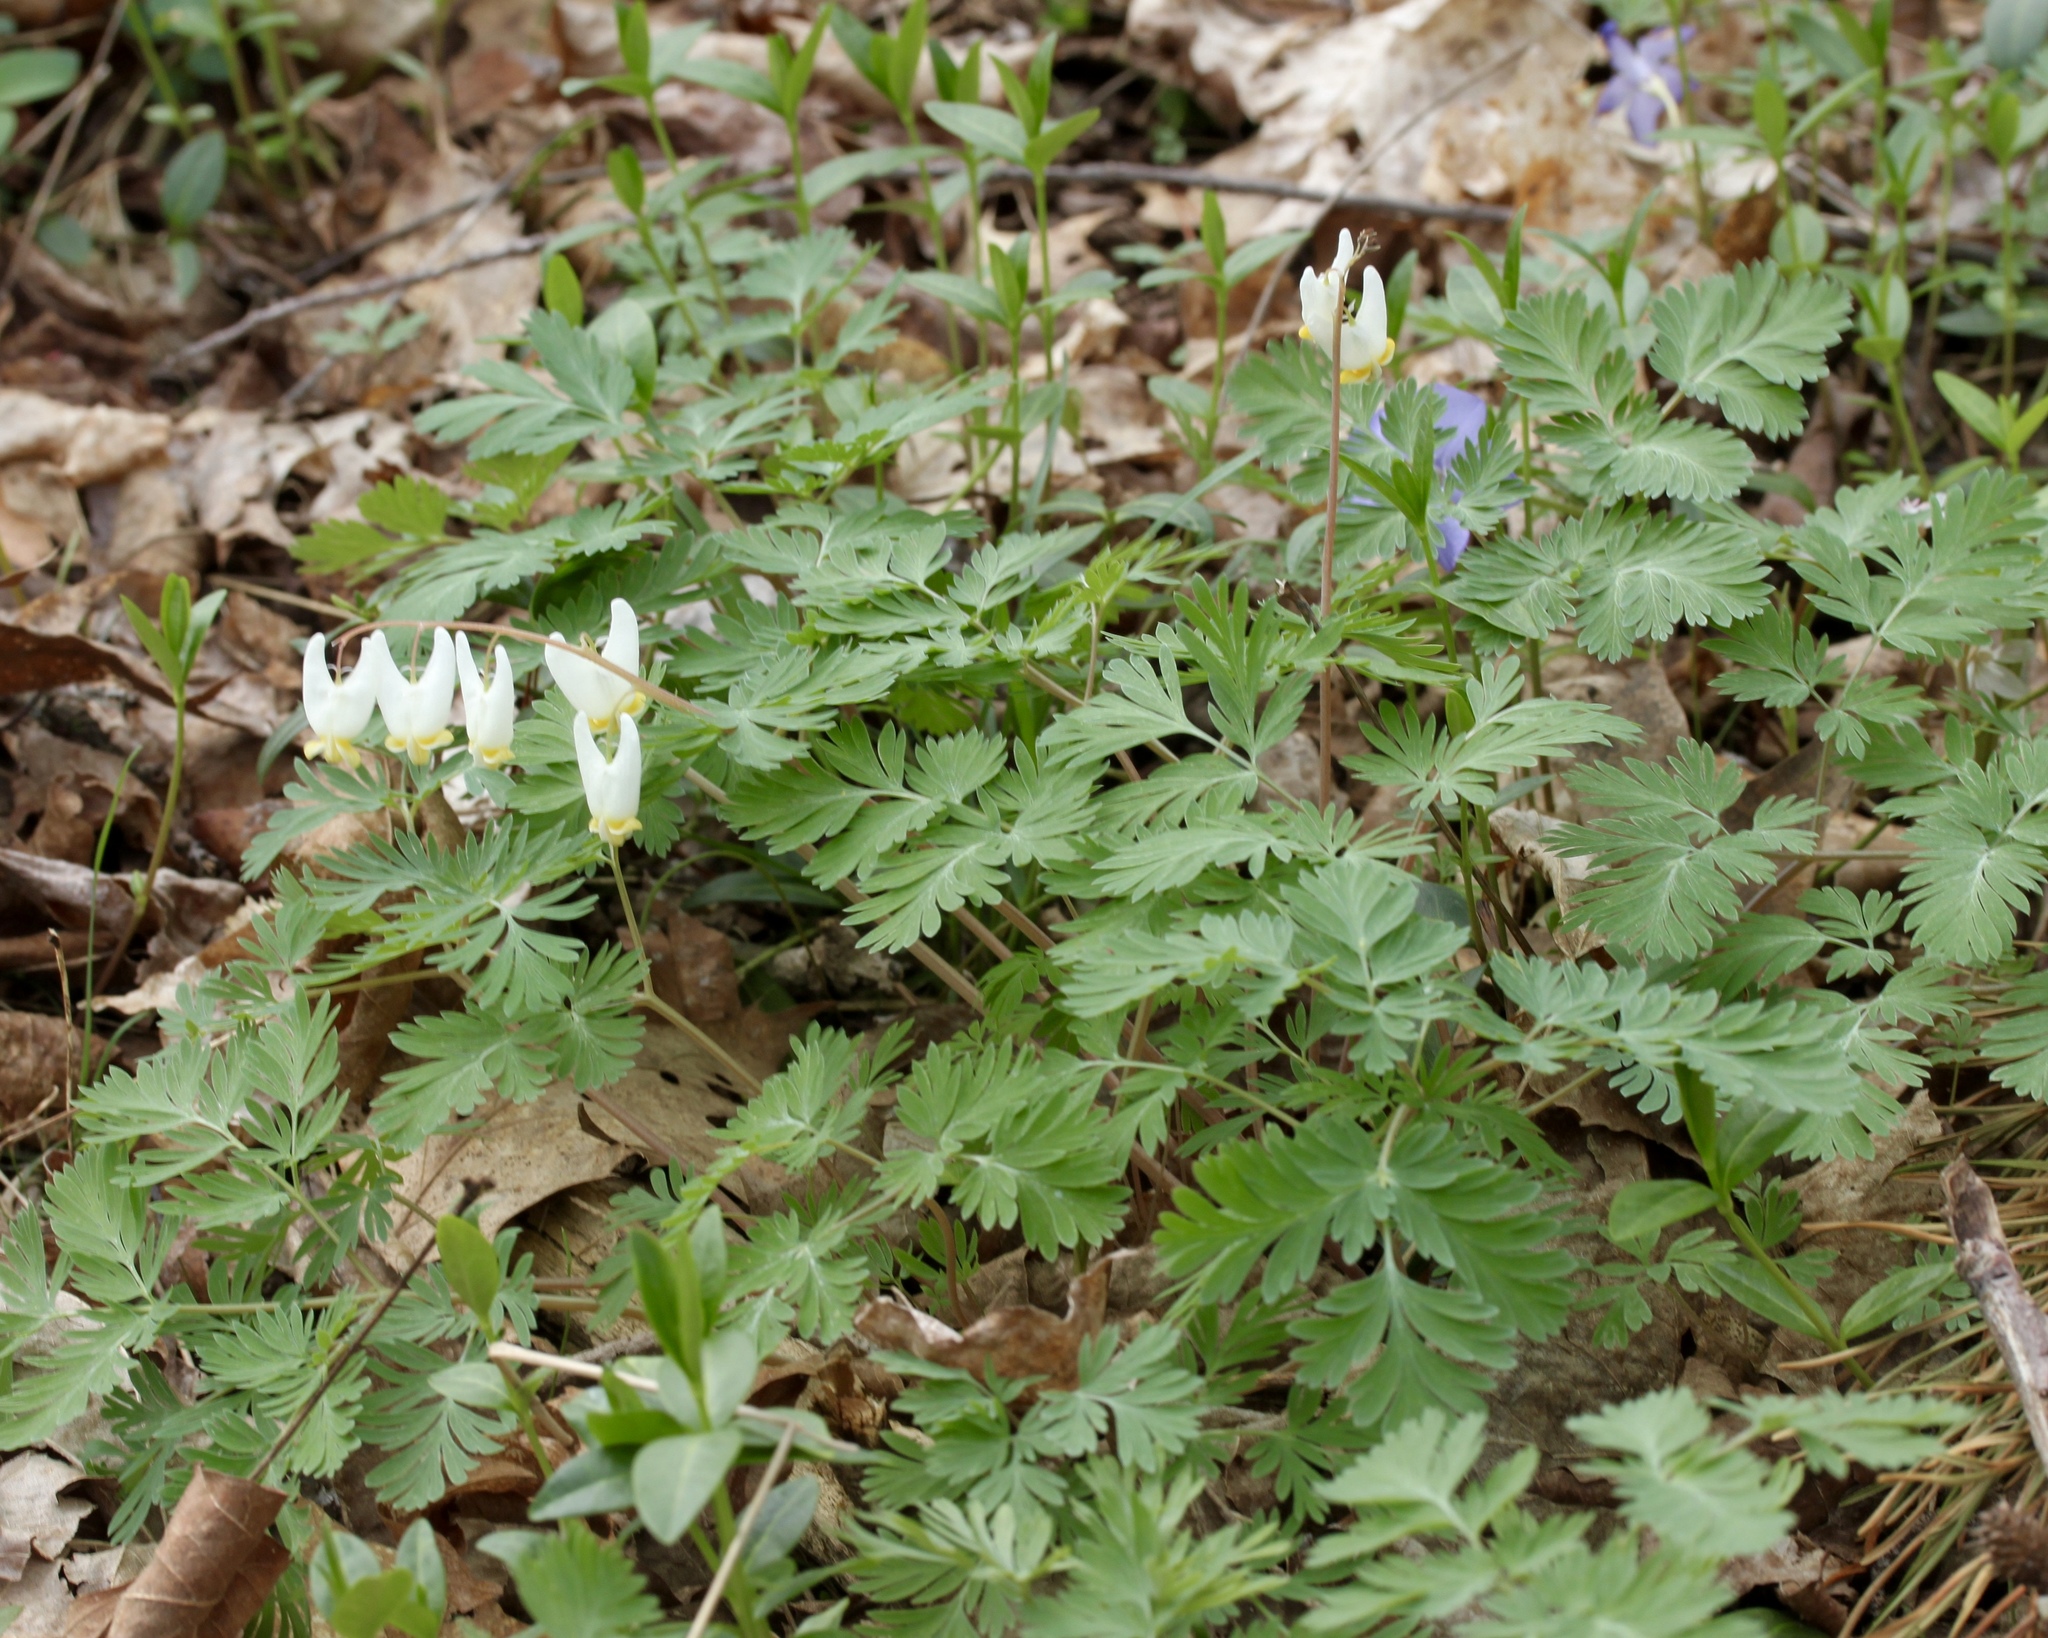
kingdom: Plantae
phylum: Tracheophyta
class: Magnoliopsida
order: Ranunculales
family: Papaveraceae
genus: Dicentra
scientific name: Dicentra cucullaria
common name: Dutchman's breeches
